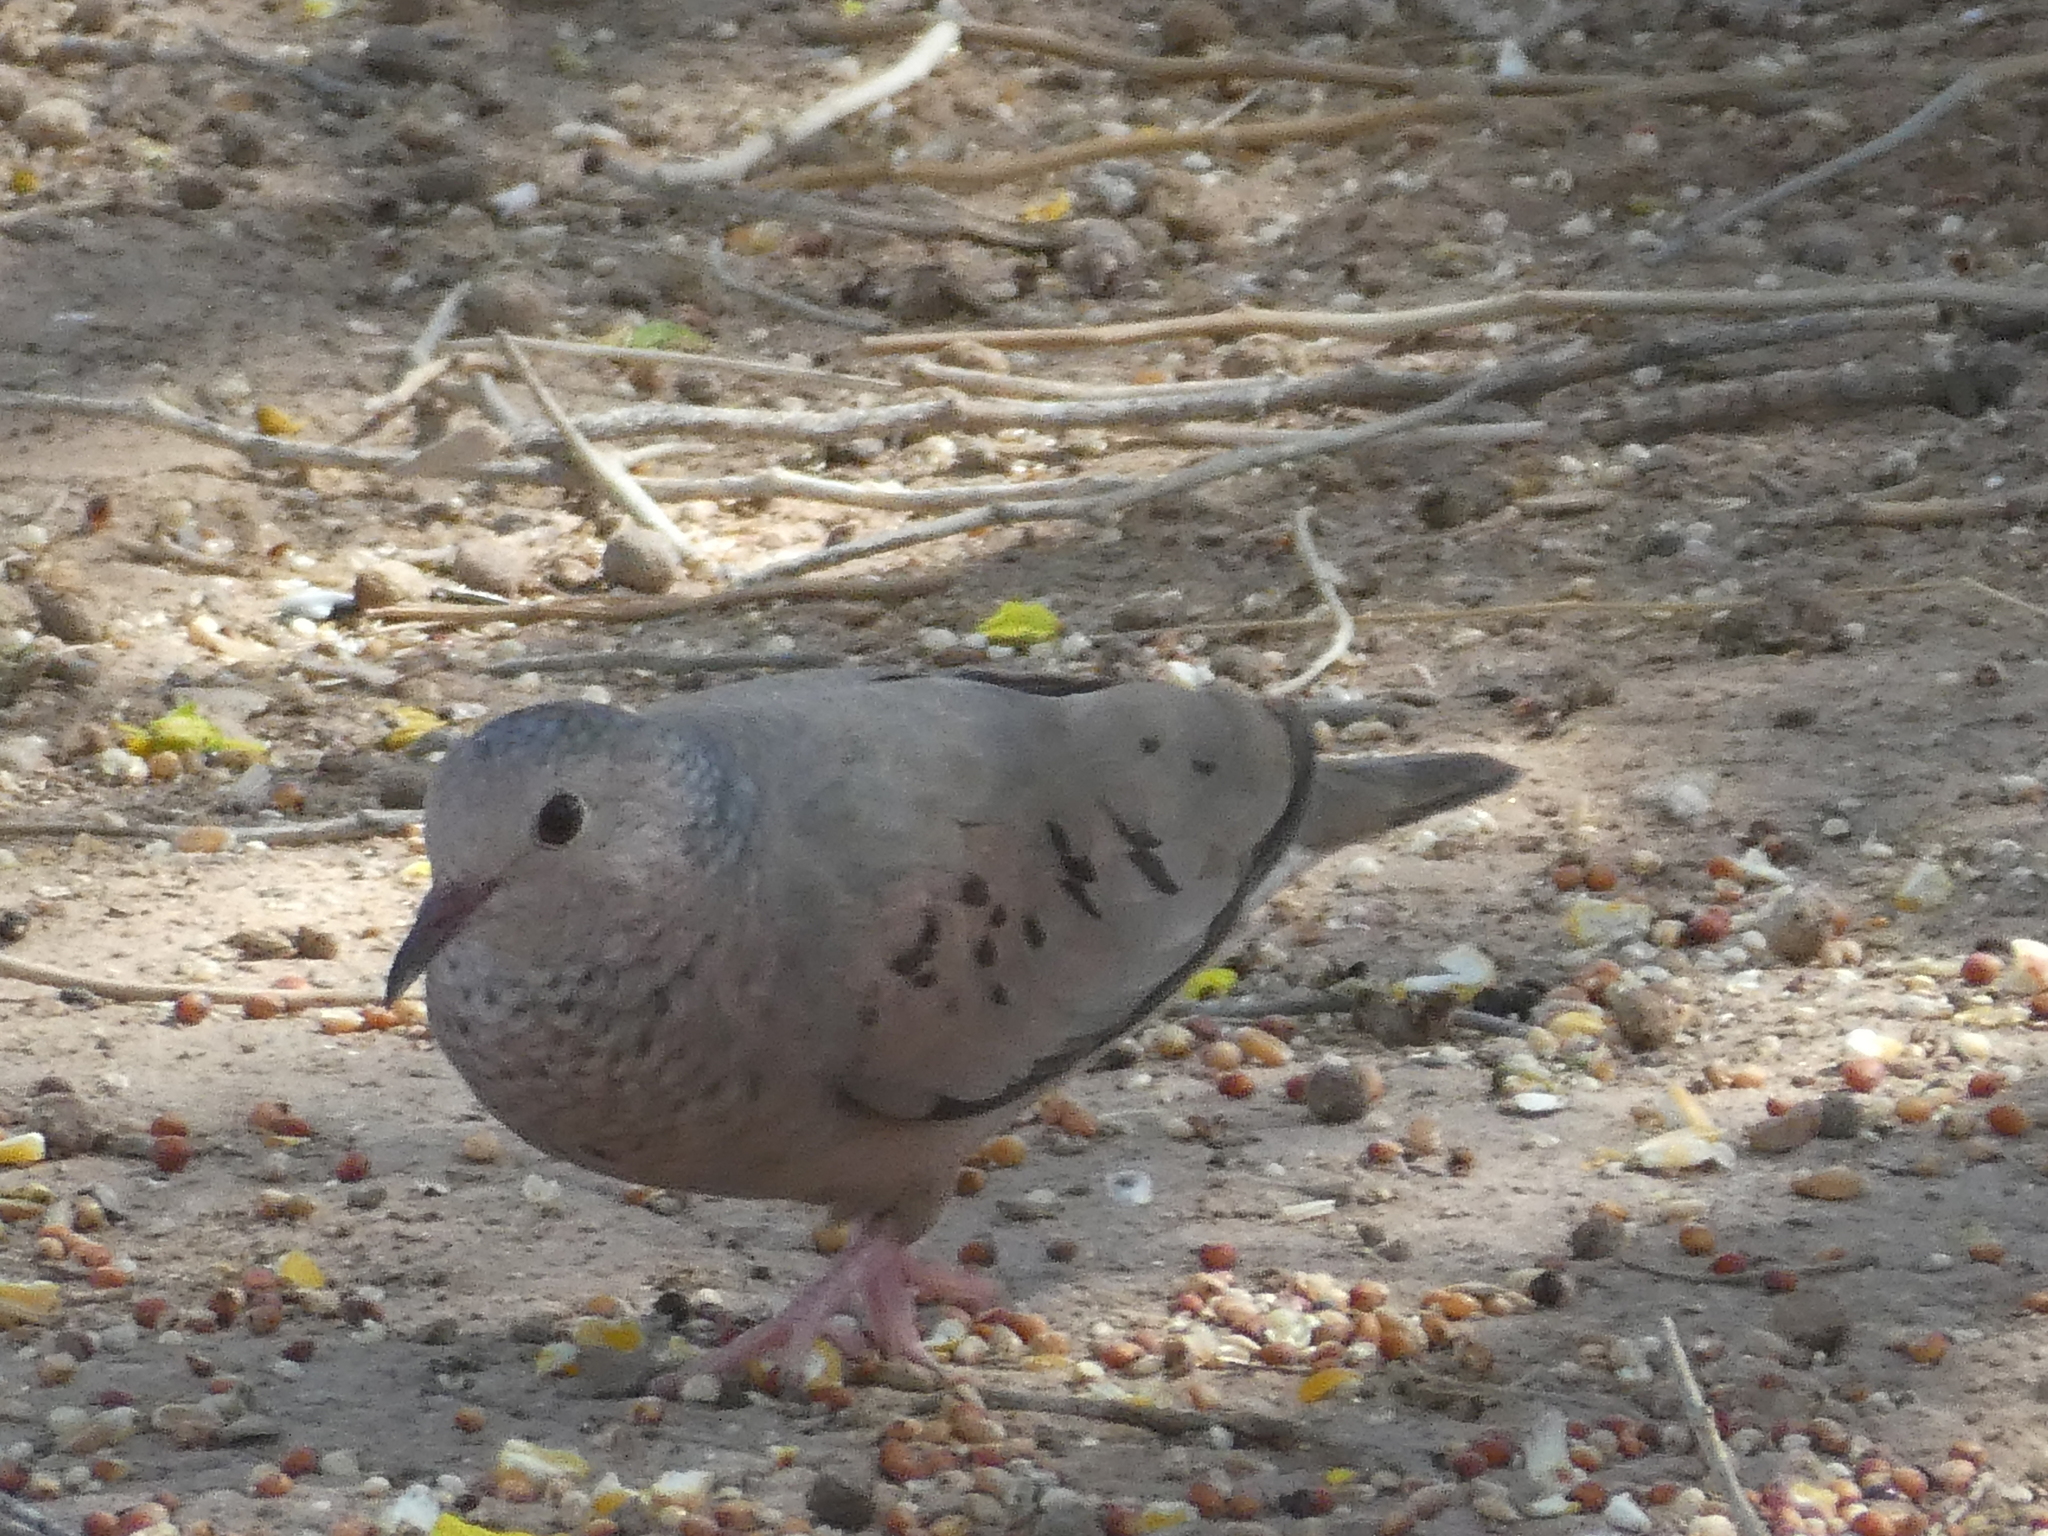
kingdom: Animalia
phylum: Chordata
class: Aves
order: Columbiformes
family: Columbidae
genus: Columbina
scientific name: Columbina passerina
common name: Common ground-dove
